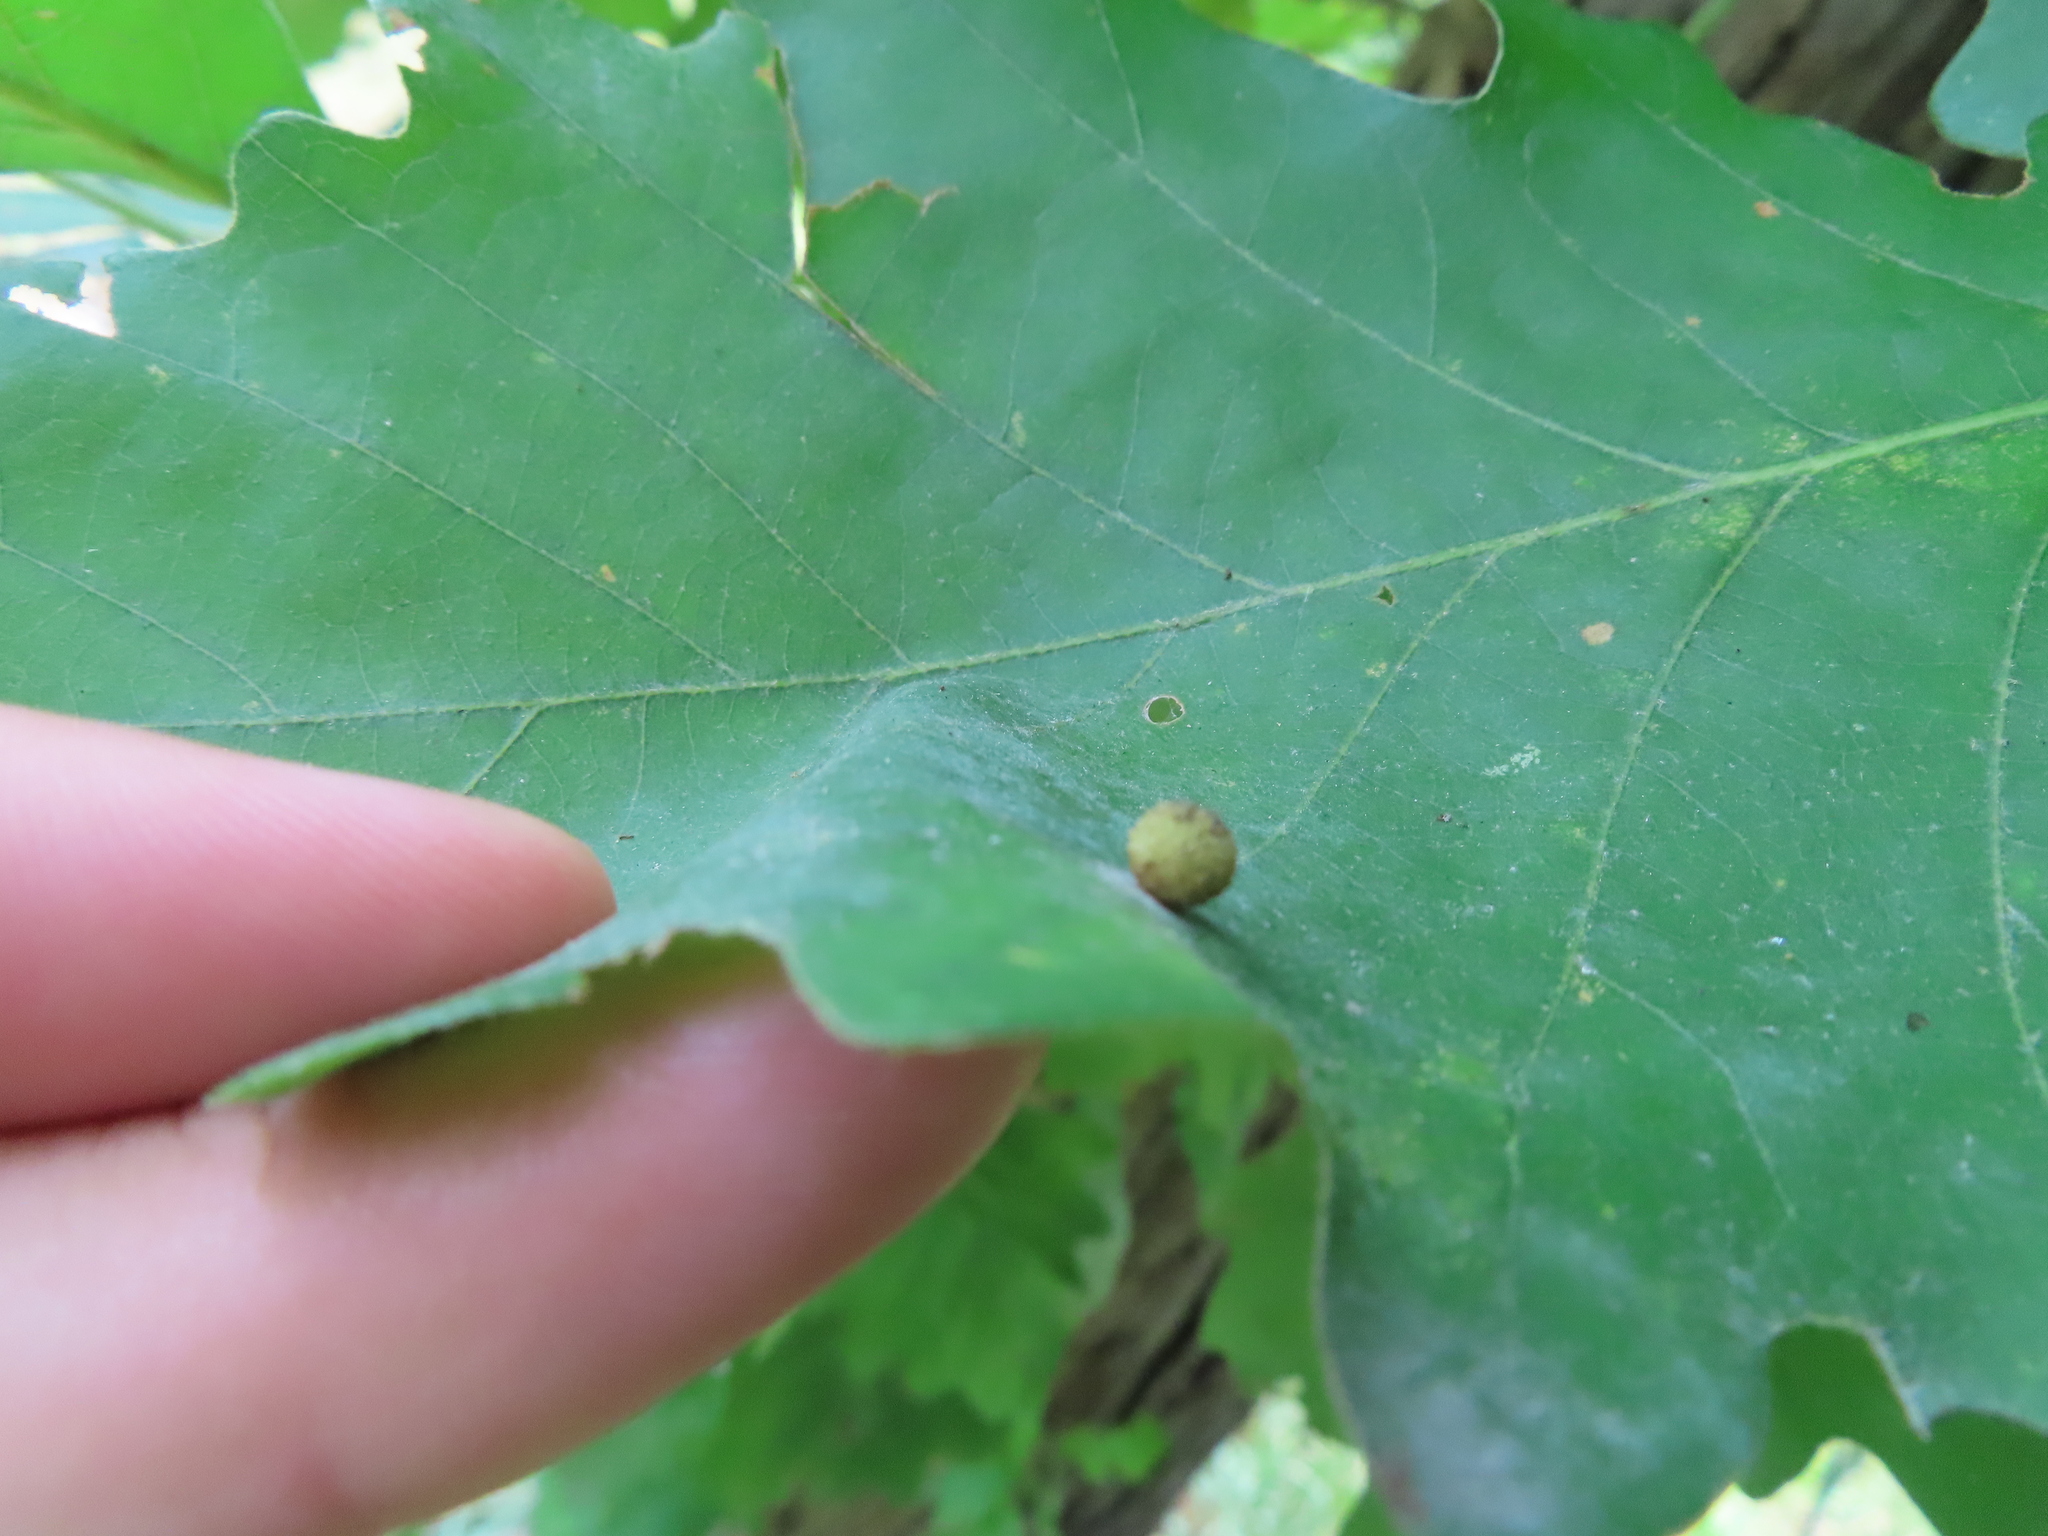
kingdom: Animalia
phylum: Arthropoda
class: Insecta
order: Hymenoptera
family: Cynipidae
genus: Acraspis
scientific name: Acraspis quercushirta
